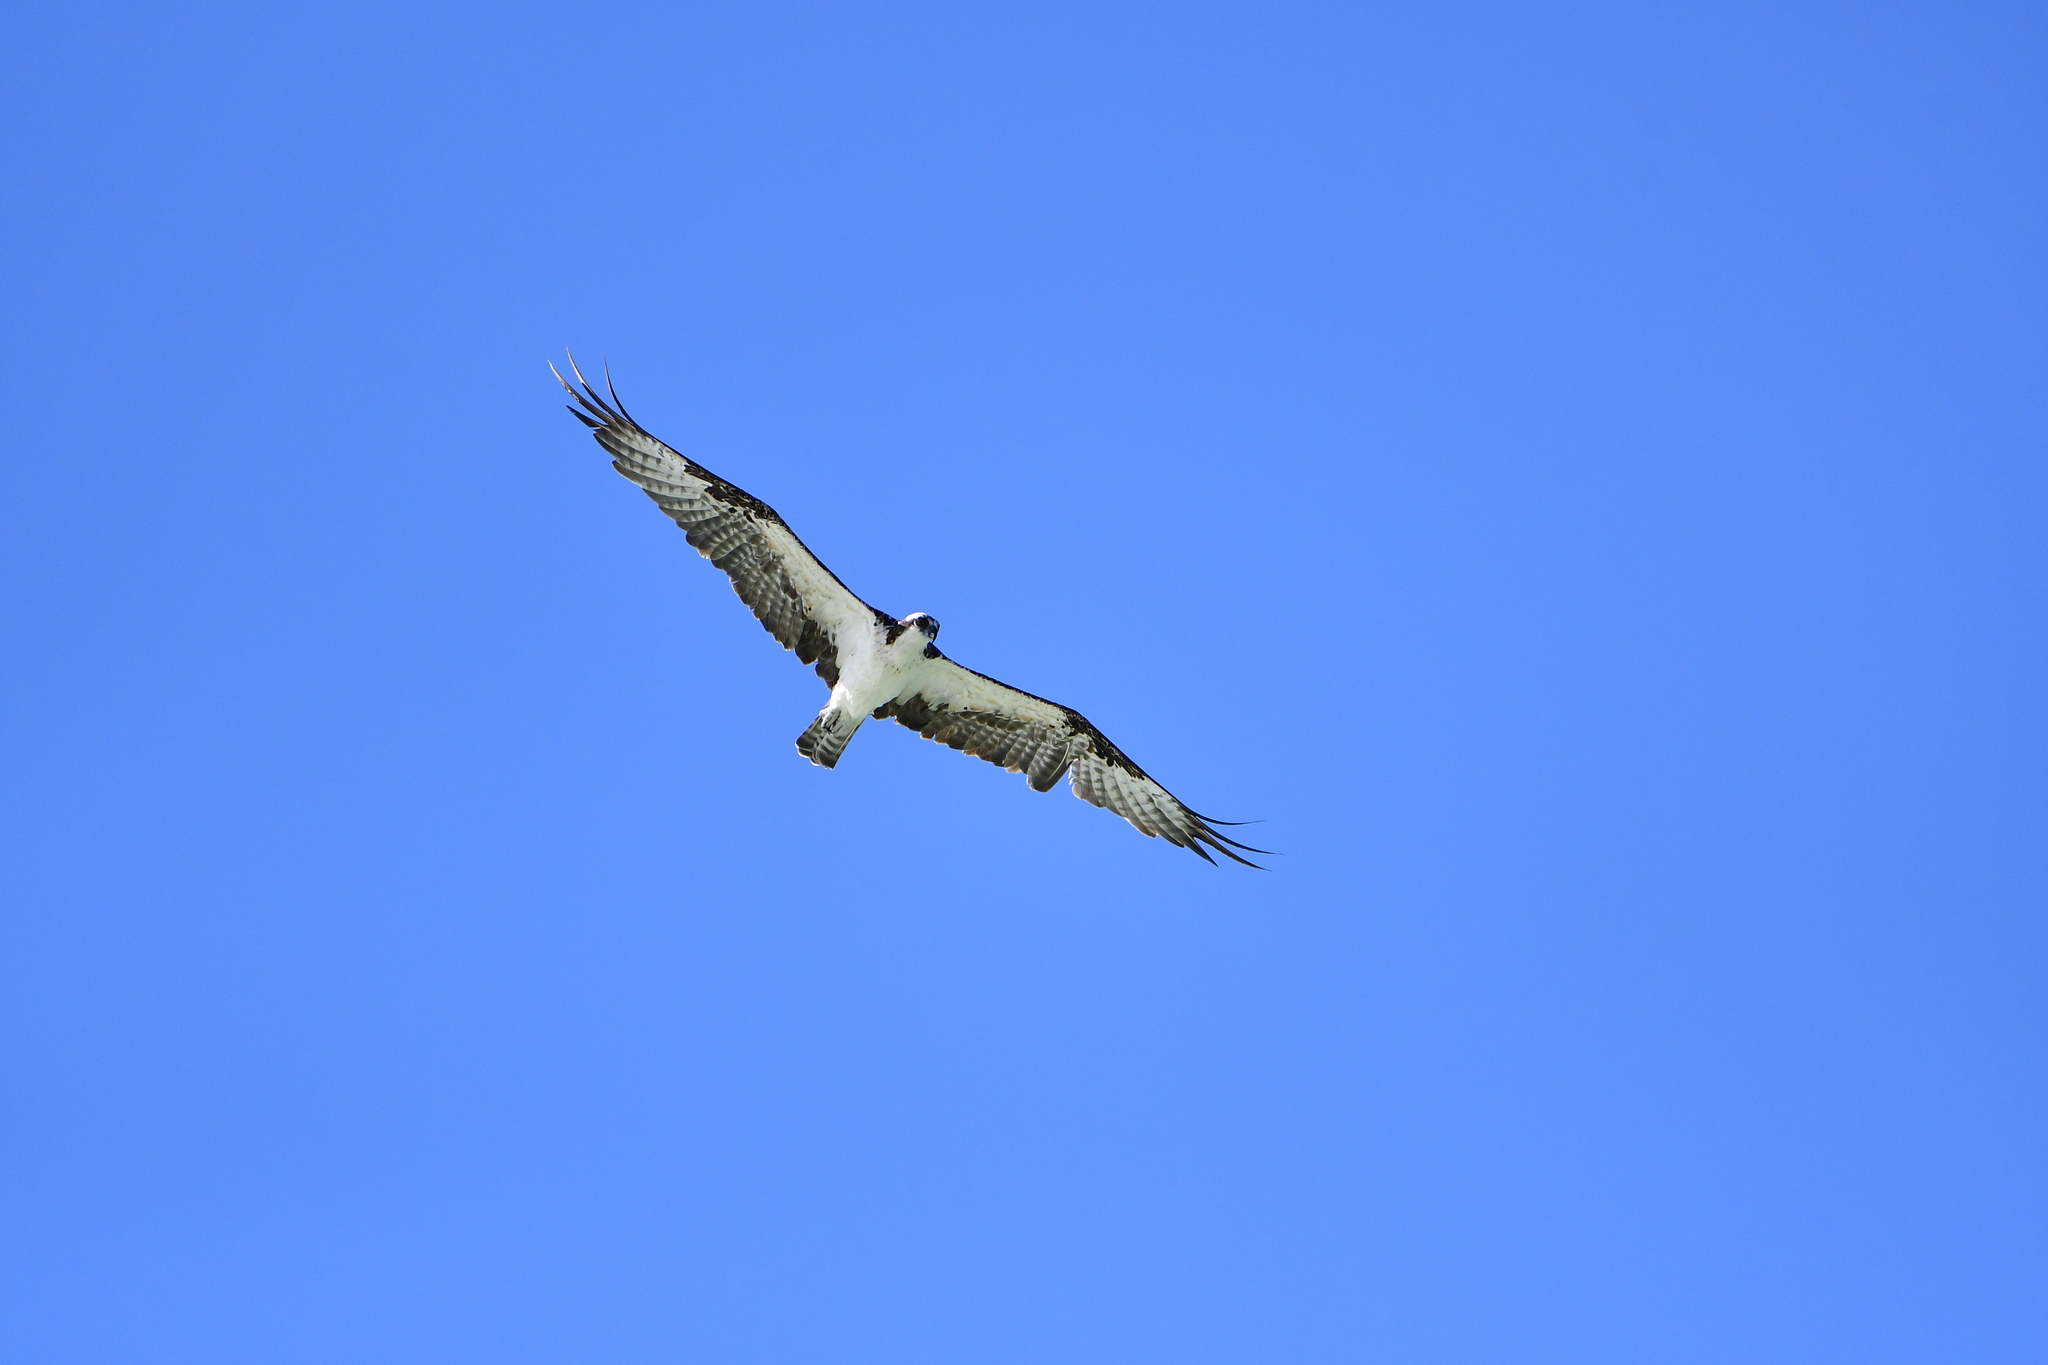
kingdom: Animalia
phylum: Chordata
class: Aves
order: Accipitriformes
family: Pandionidae
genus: Pandion
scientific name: Pandion haliaetus
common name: Osprey
